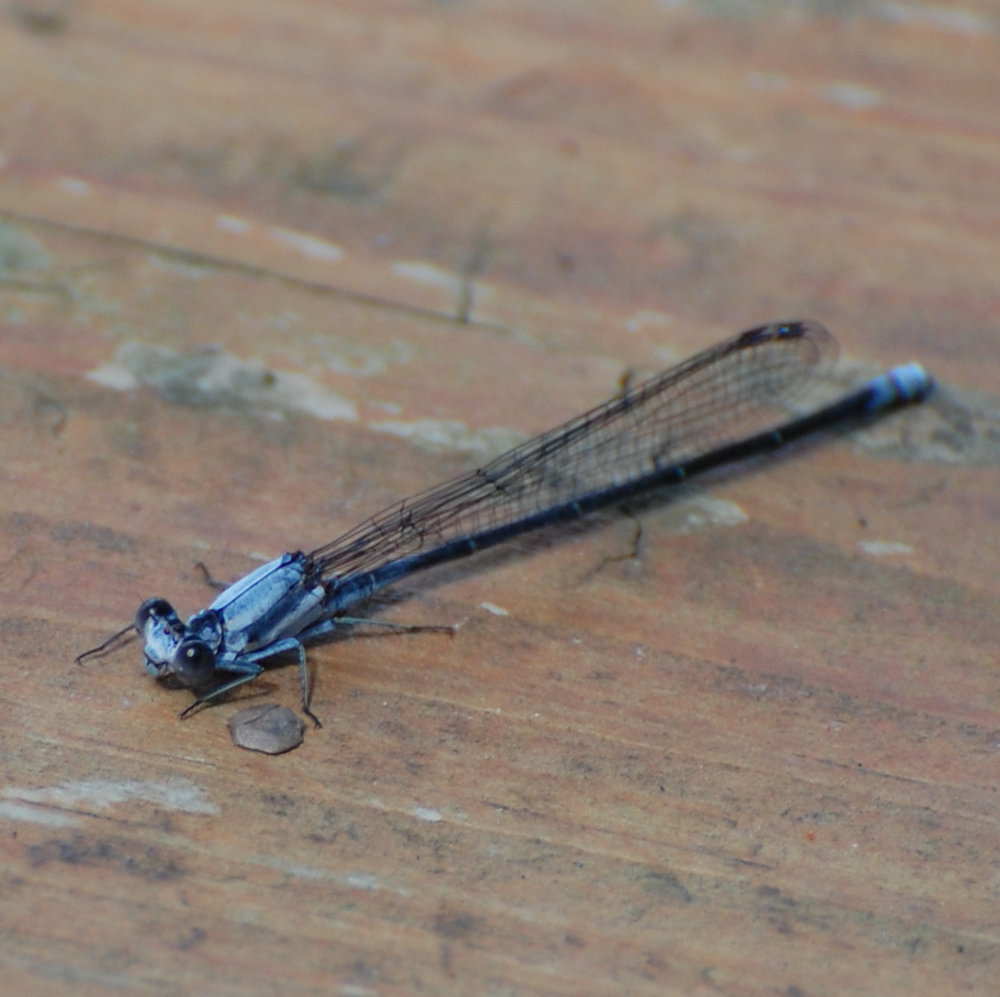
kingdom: Animalia
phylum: Arthropoda
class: Insecta
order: Odonata
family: Coenagrionidae
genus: Argia
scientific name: Argia moesta
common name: Powdered dancer
